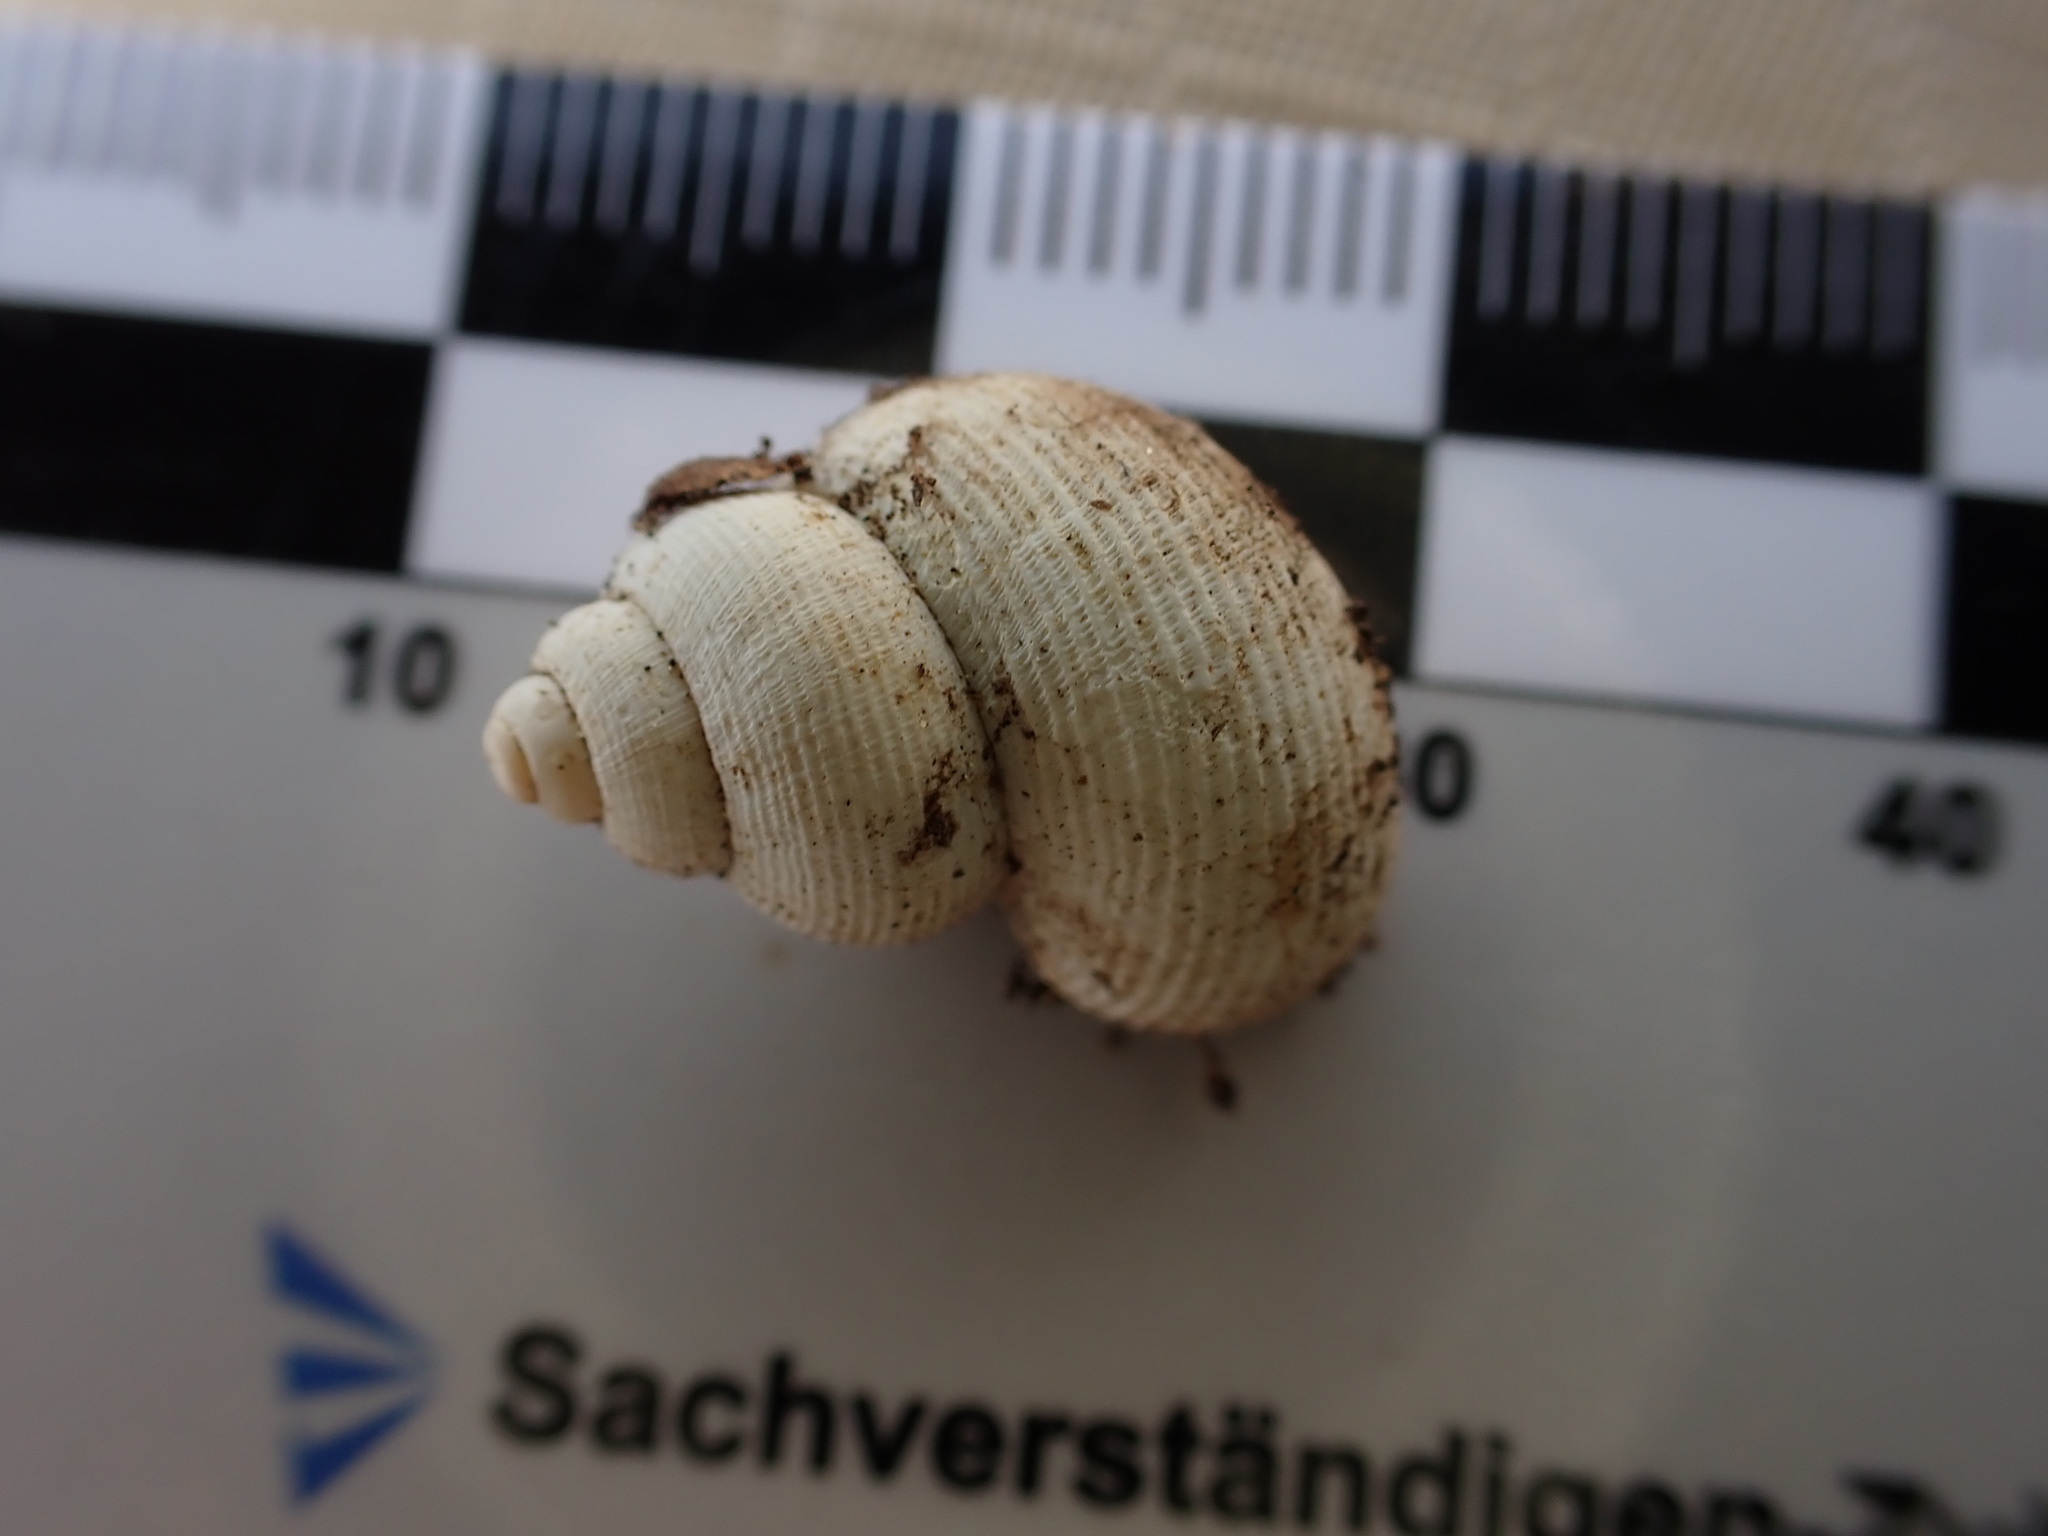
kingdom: Animalia
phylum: Mollusca
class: Gastropoda
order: Littorinimorpha
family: Pomatiidae
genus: Pomatias
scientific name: Pomatias elegans
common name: Red-mouthed snail
